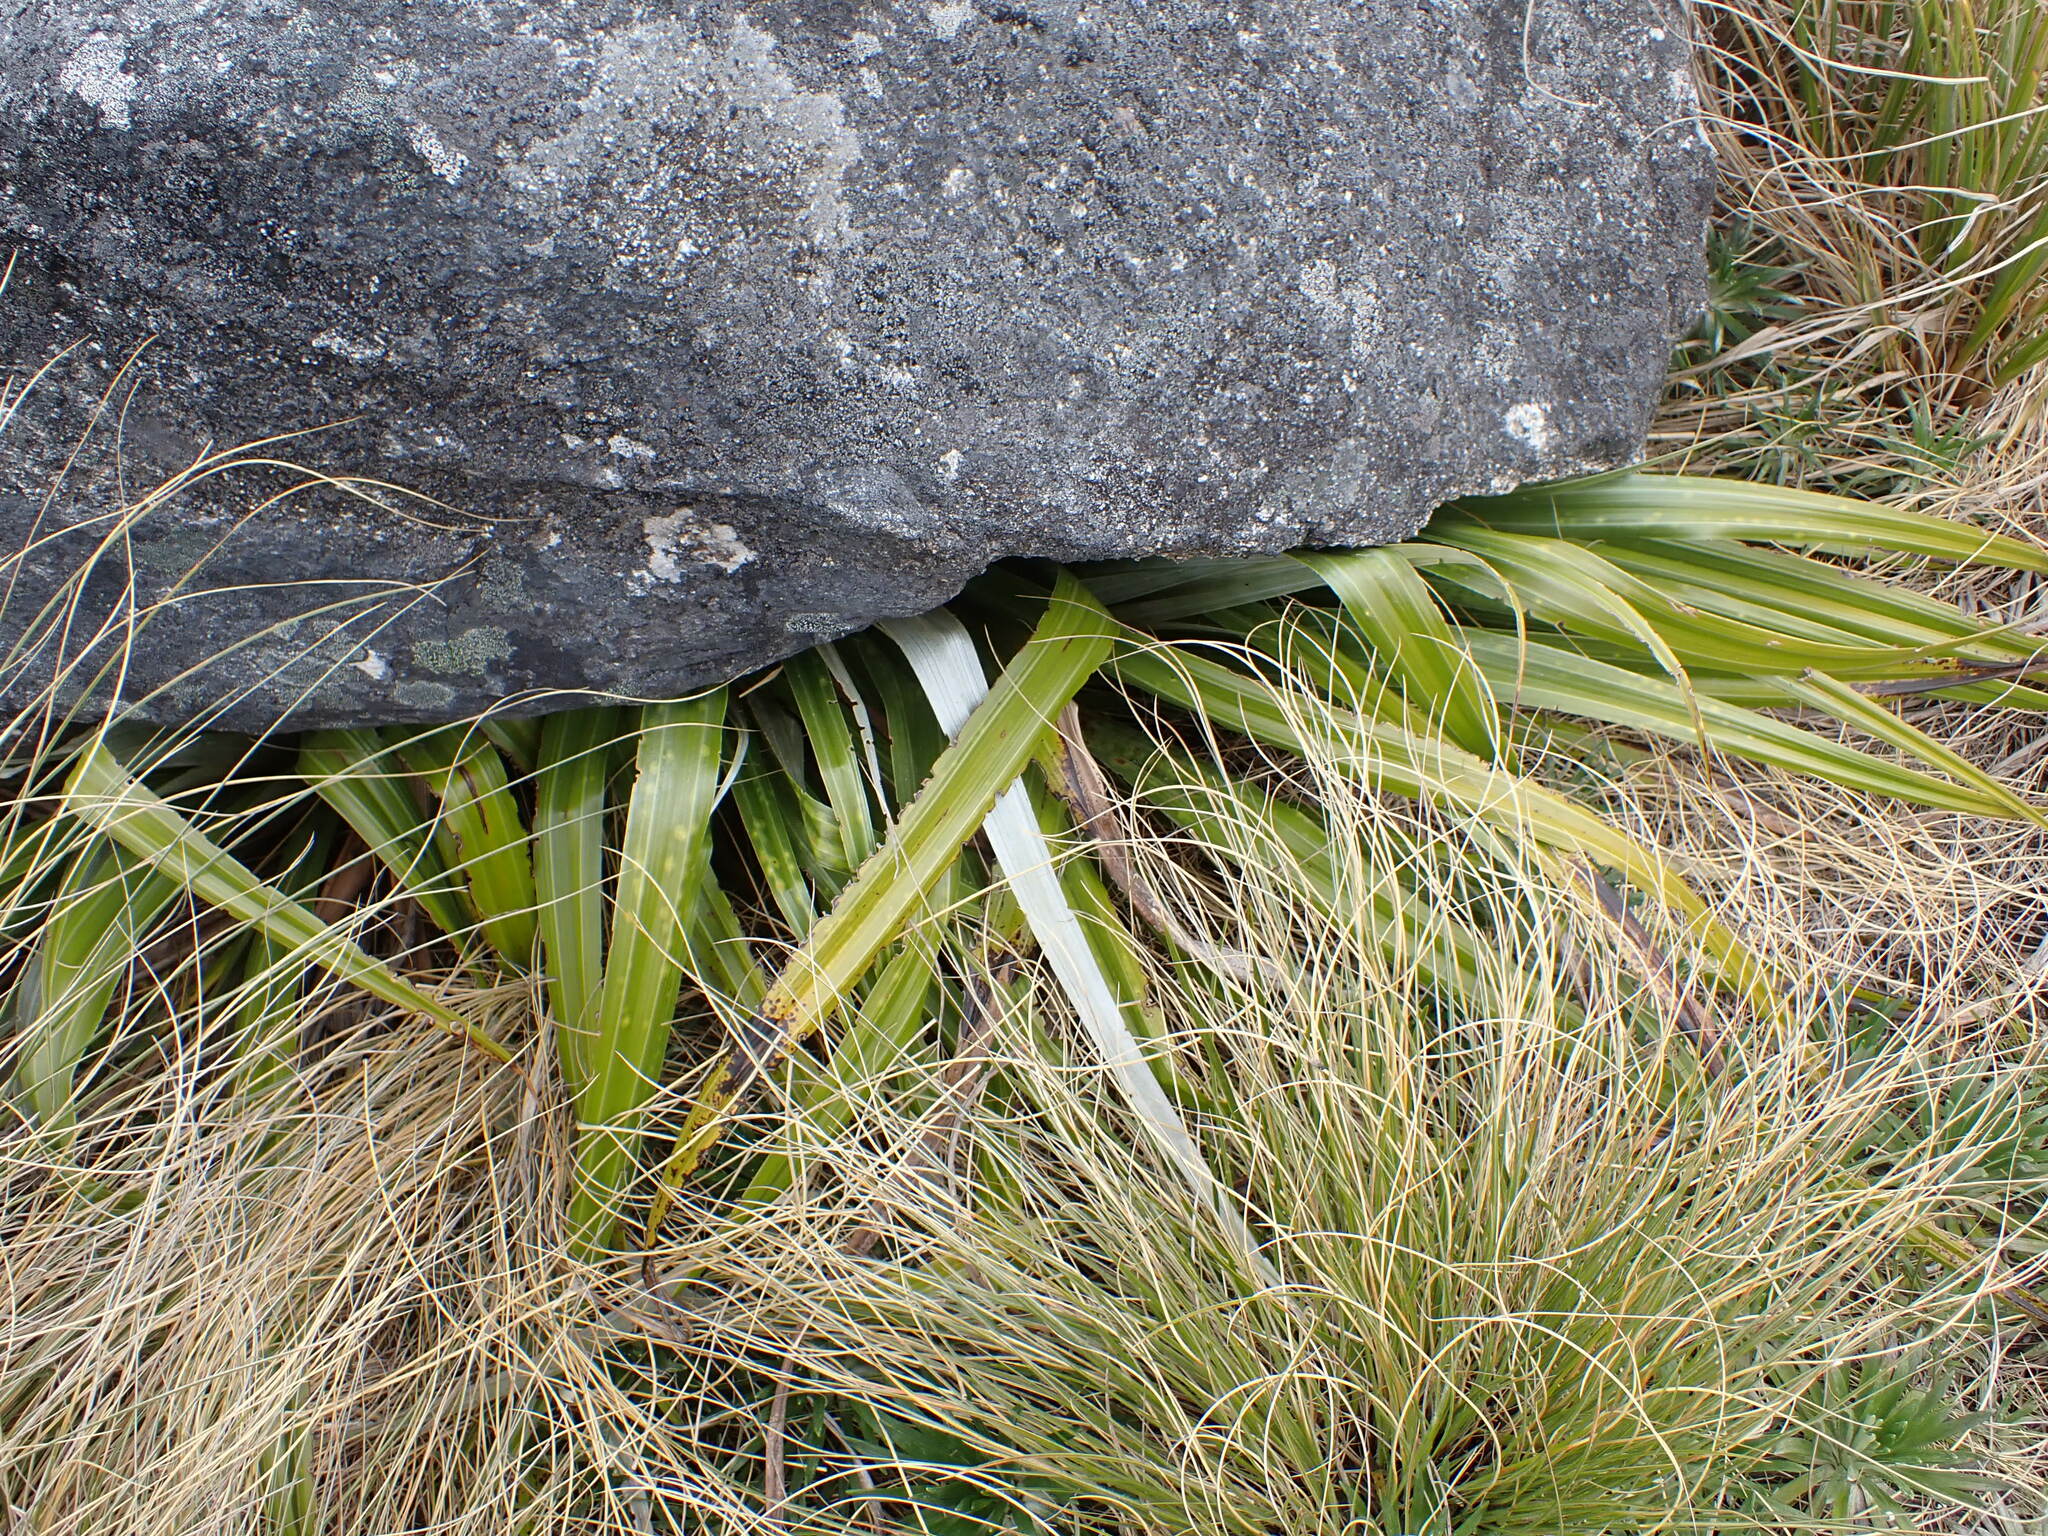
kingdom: Plantae
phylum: Tracheophyta
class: Liliopsida
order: Asparagales
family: Asteliaceae
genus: Astelia
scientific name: Astelia petriei
